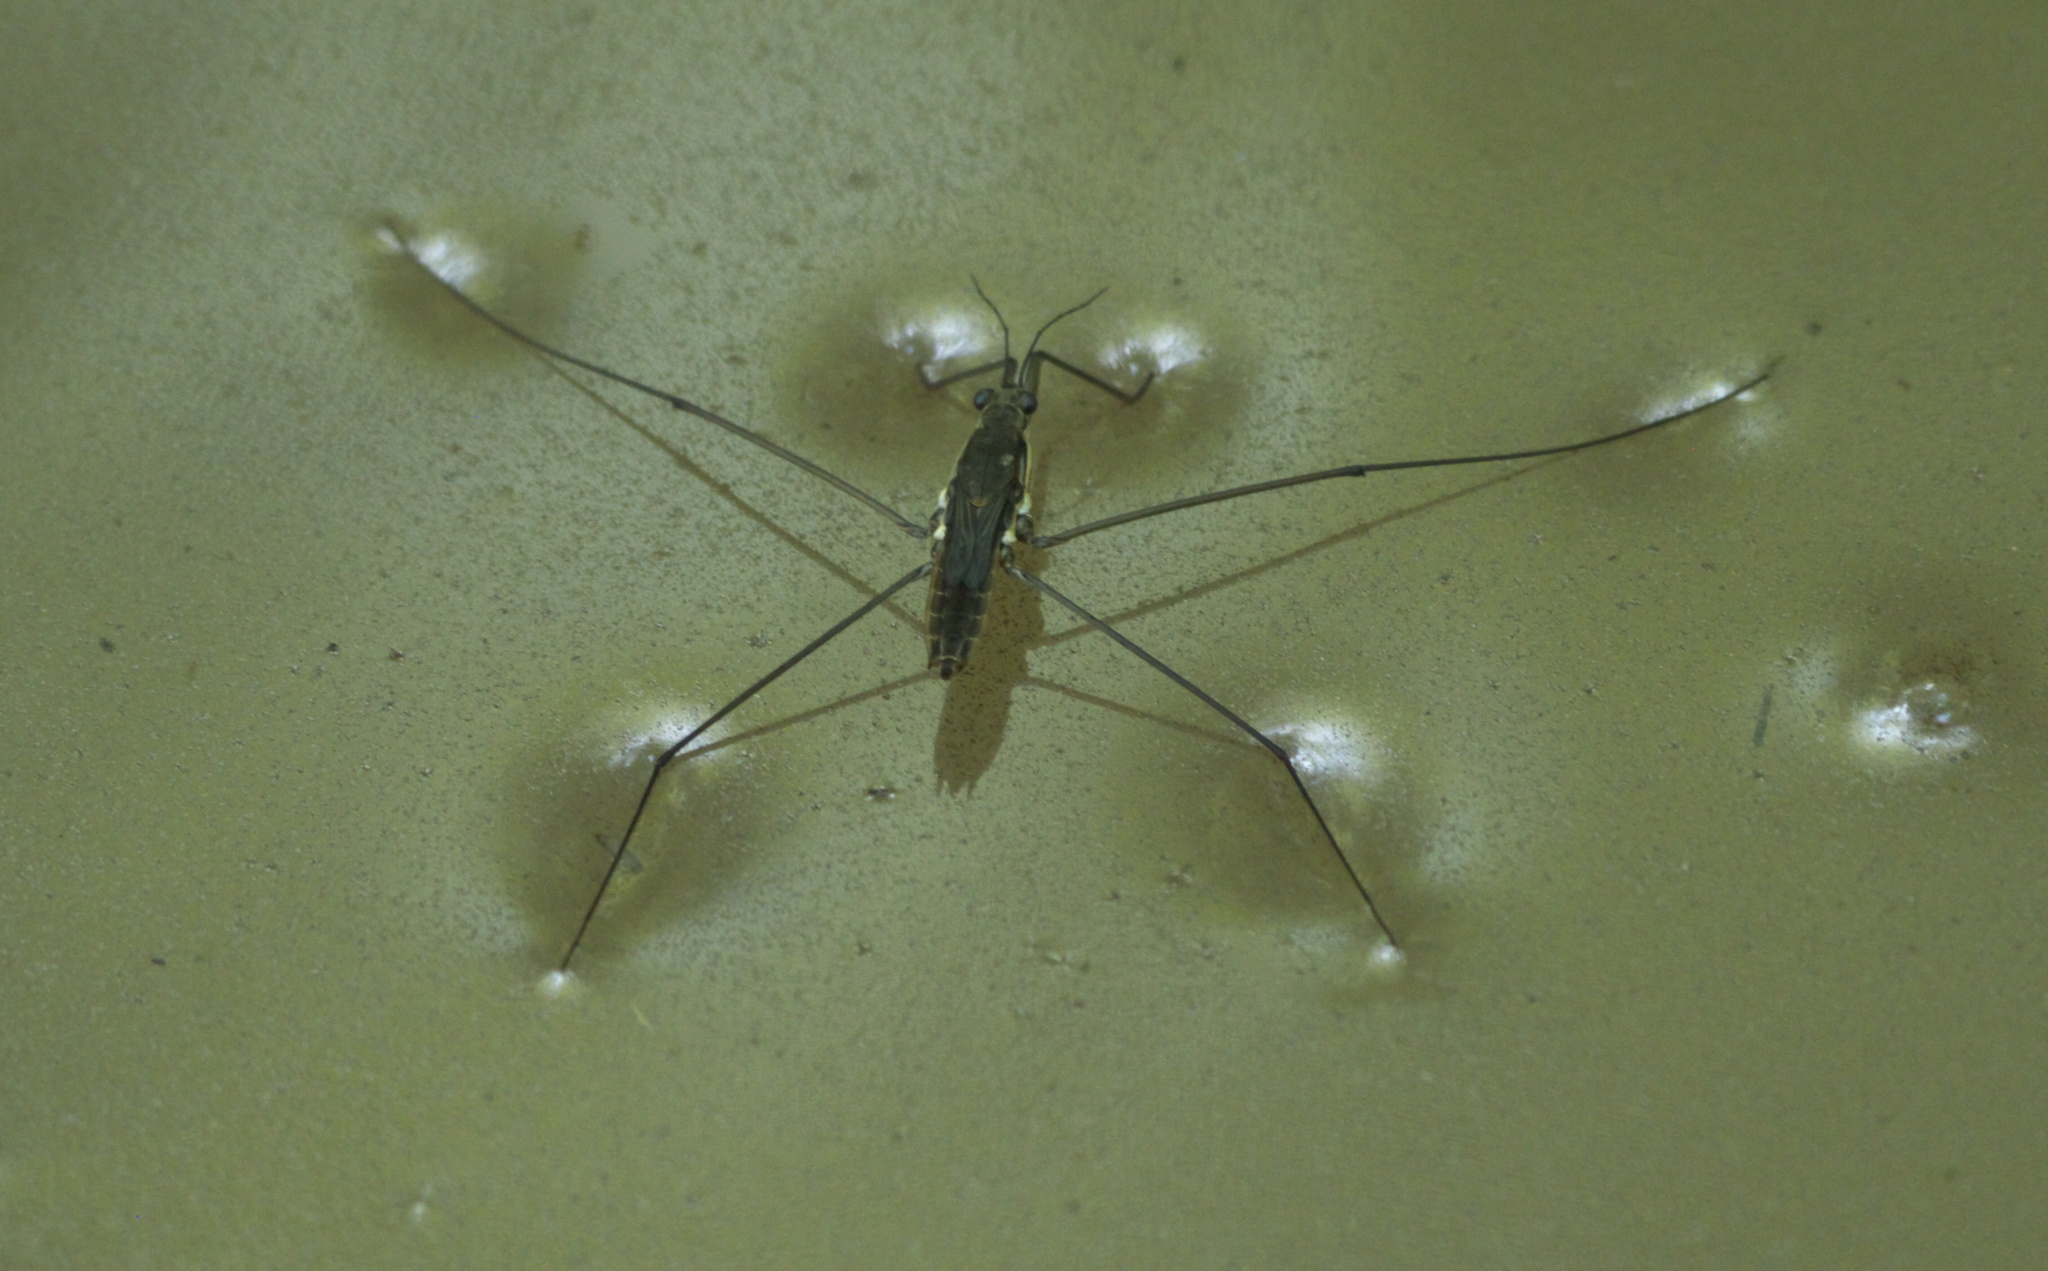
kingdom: Animalia
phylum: Arthropoda
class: Insecta
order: Hemiptera
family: Gerridae
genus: Aquarius
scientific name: Aquarius
